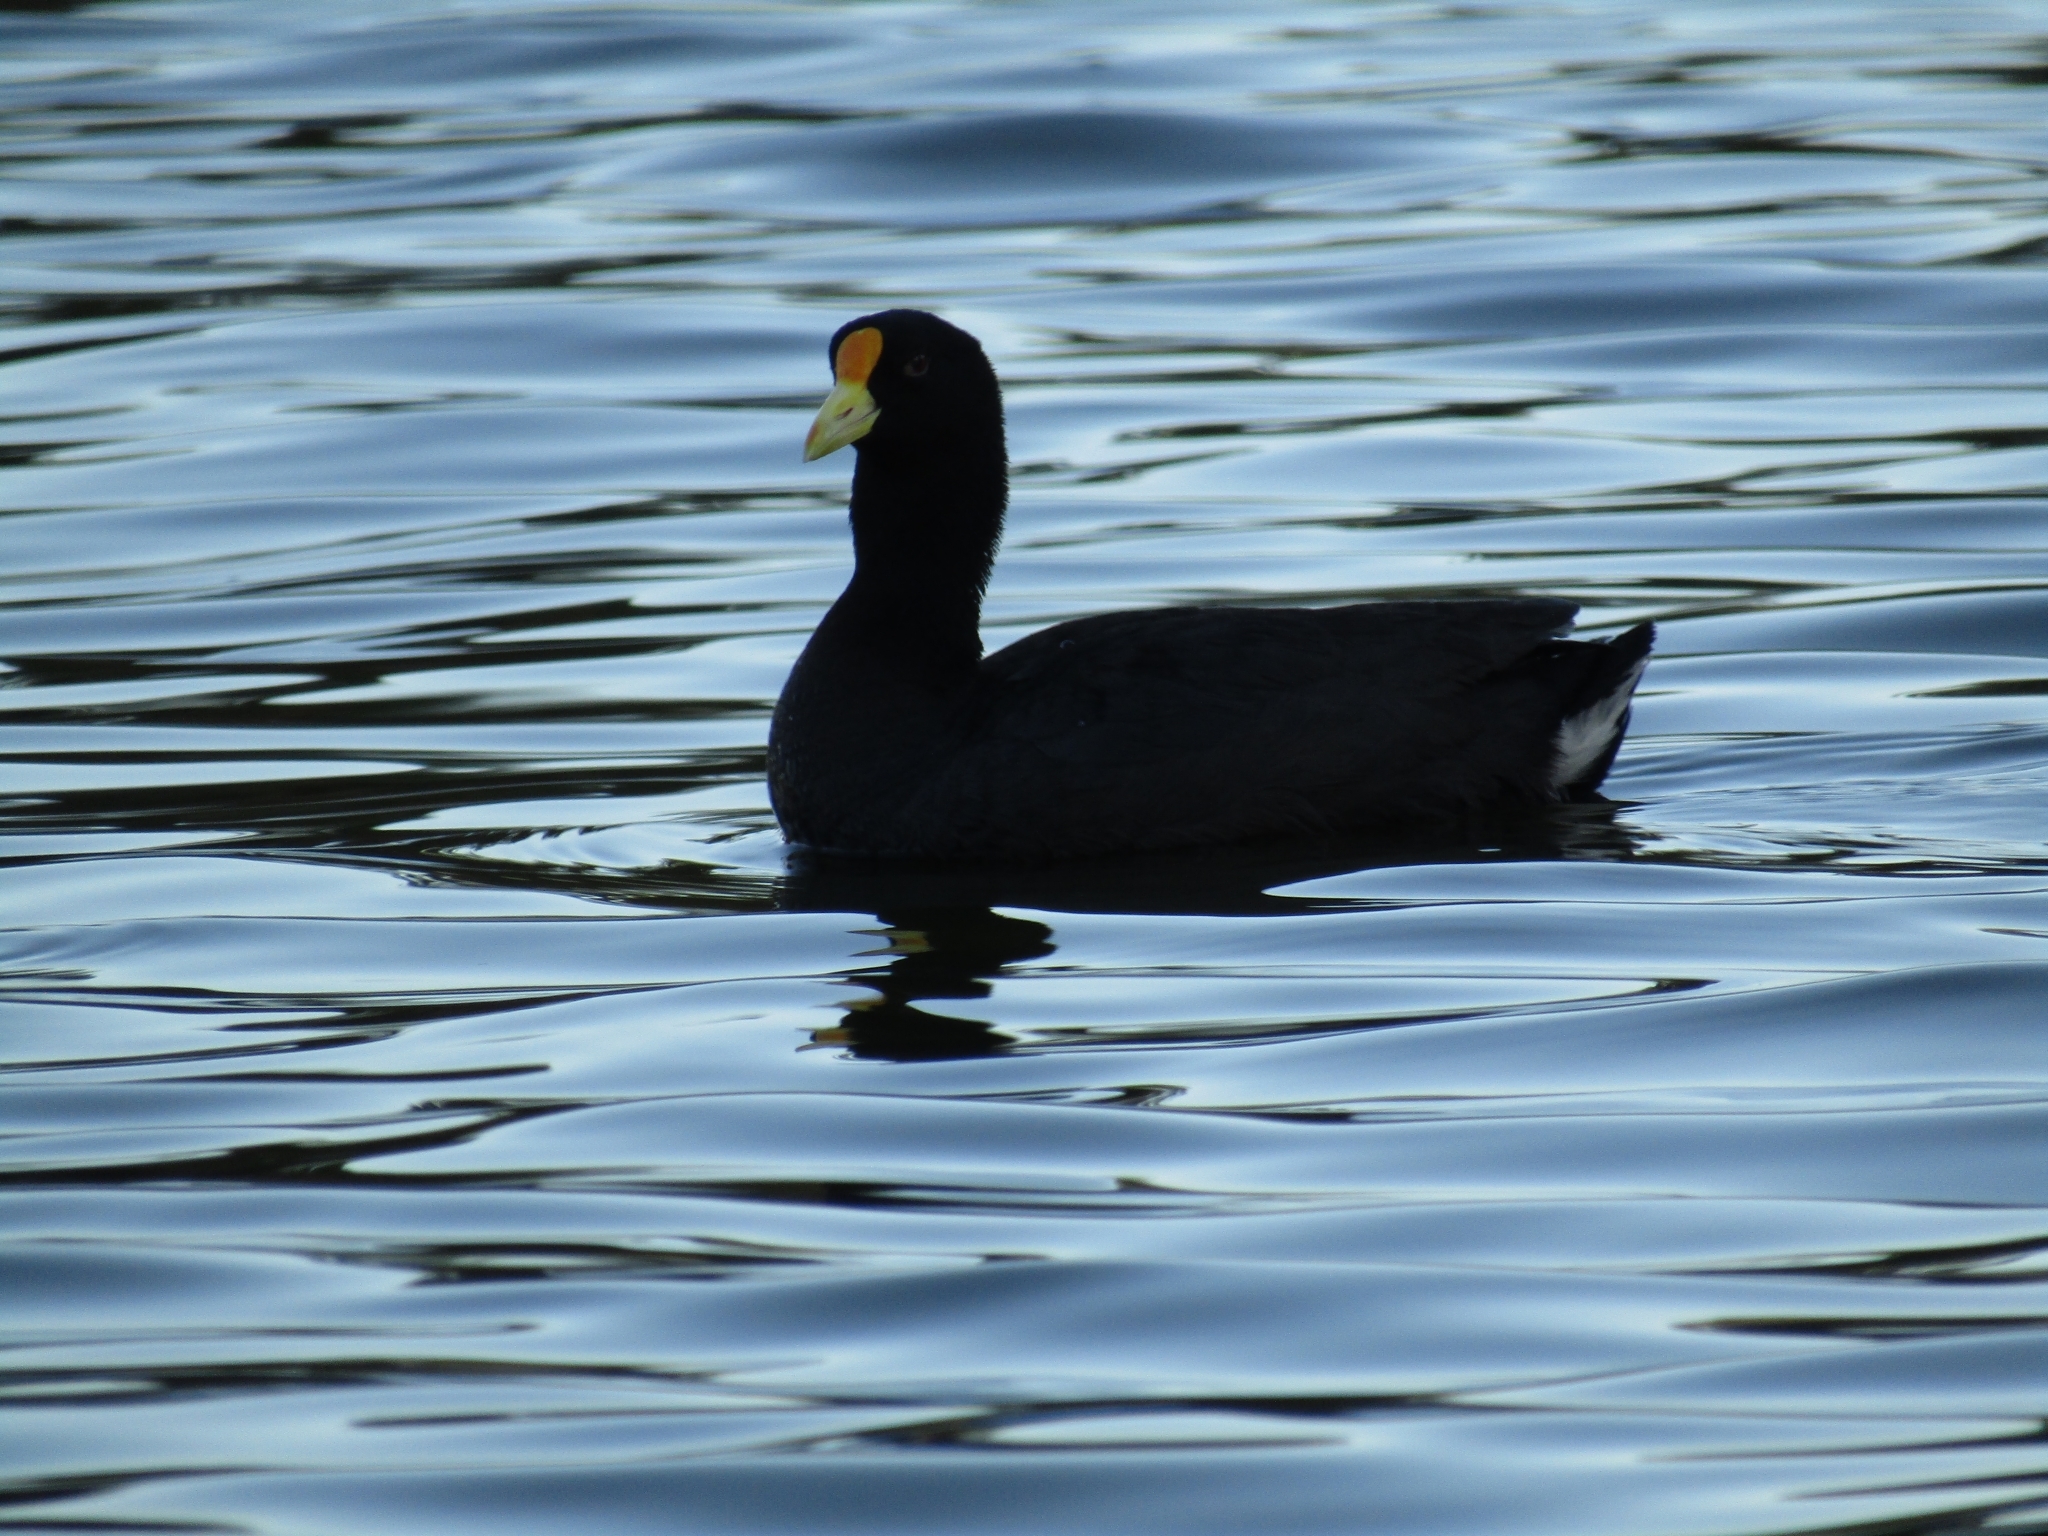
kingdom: Animalia
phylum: Chordata
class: Aves
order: Gruiformes
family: Rallidae
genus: Fulica
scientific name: Fulica leucoptera
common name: White-winged coot
